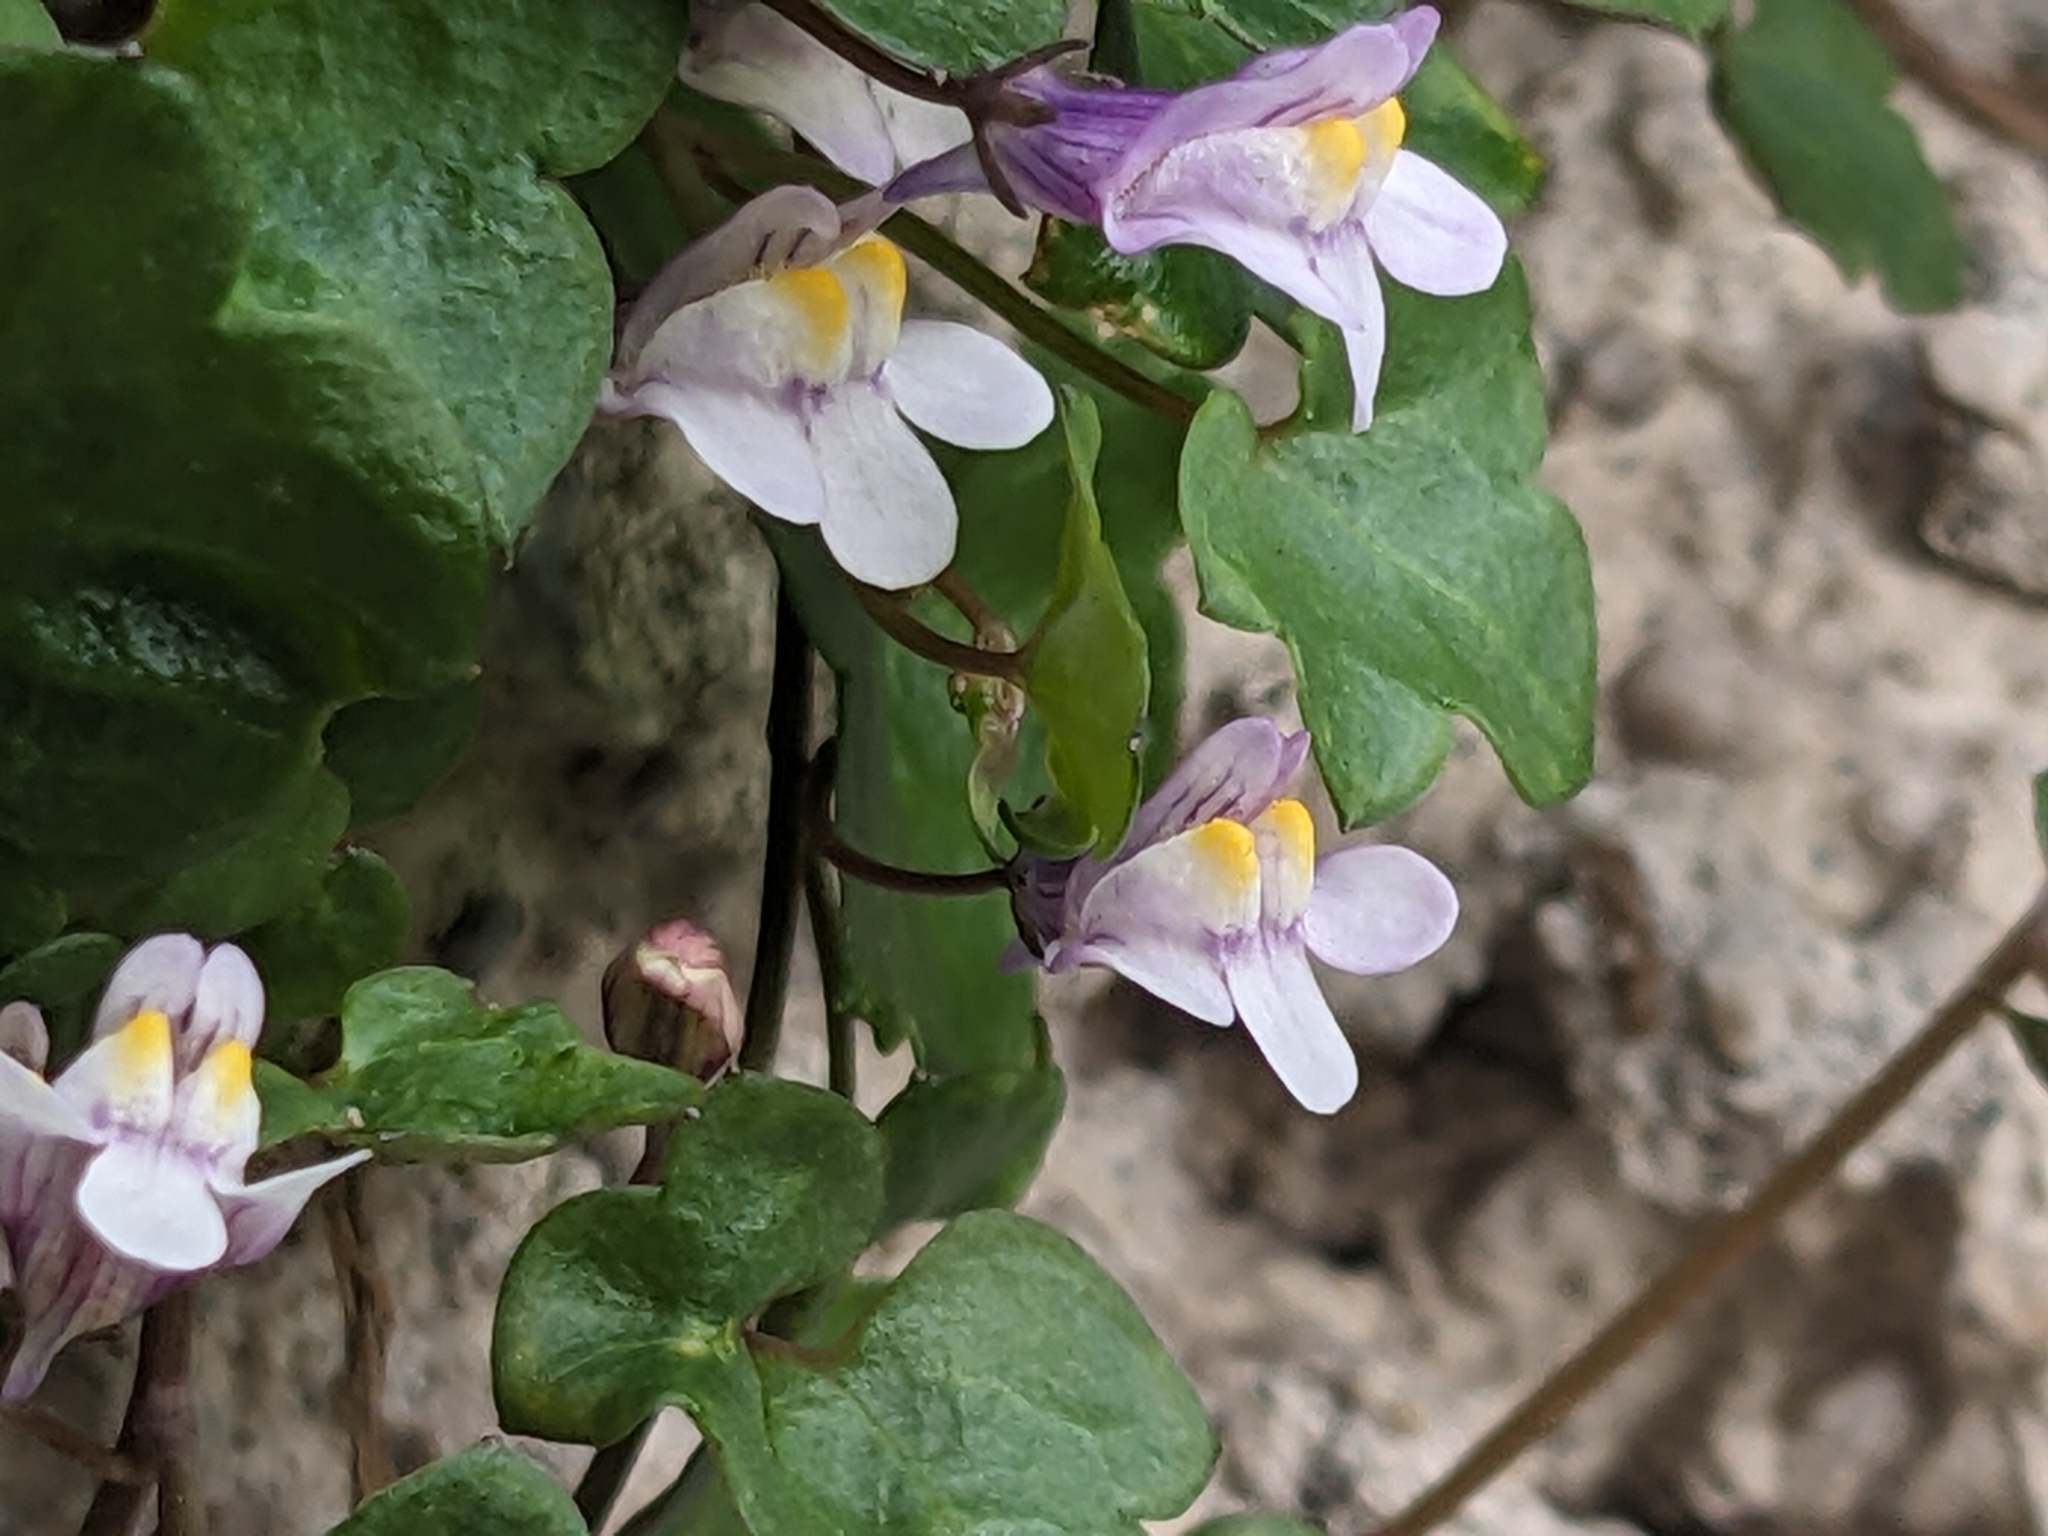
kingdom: Plantae
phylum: Tracheophyta
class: Magnoliopsida
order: Lamiales
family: Plantaginaceae
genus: Cymbalaria
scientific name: Cymbalaria muralis
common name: Ivy-leaved toadflax
